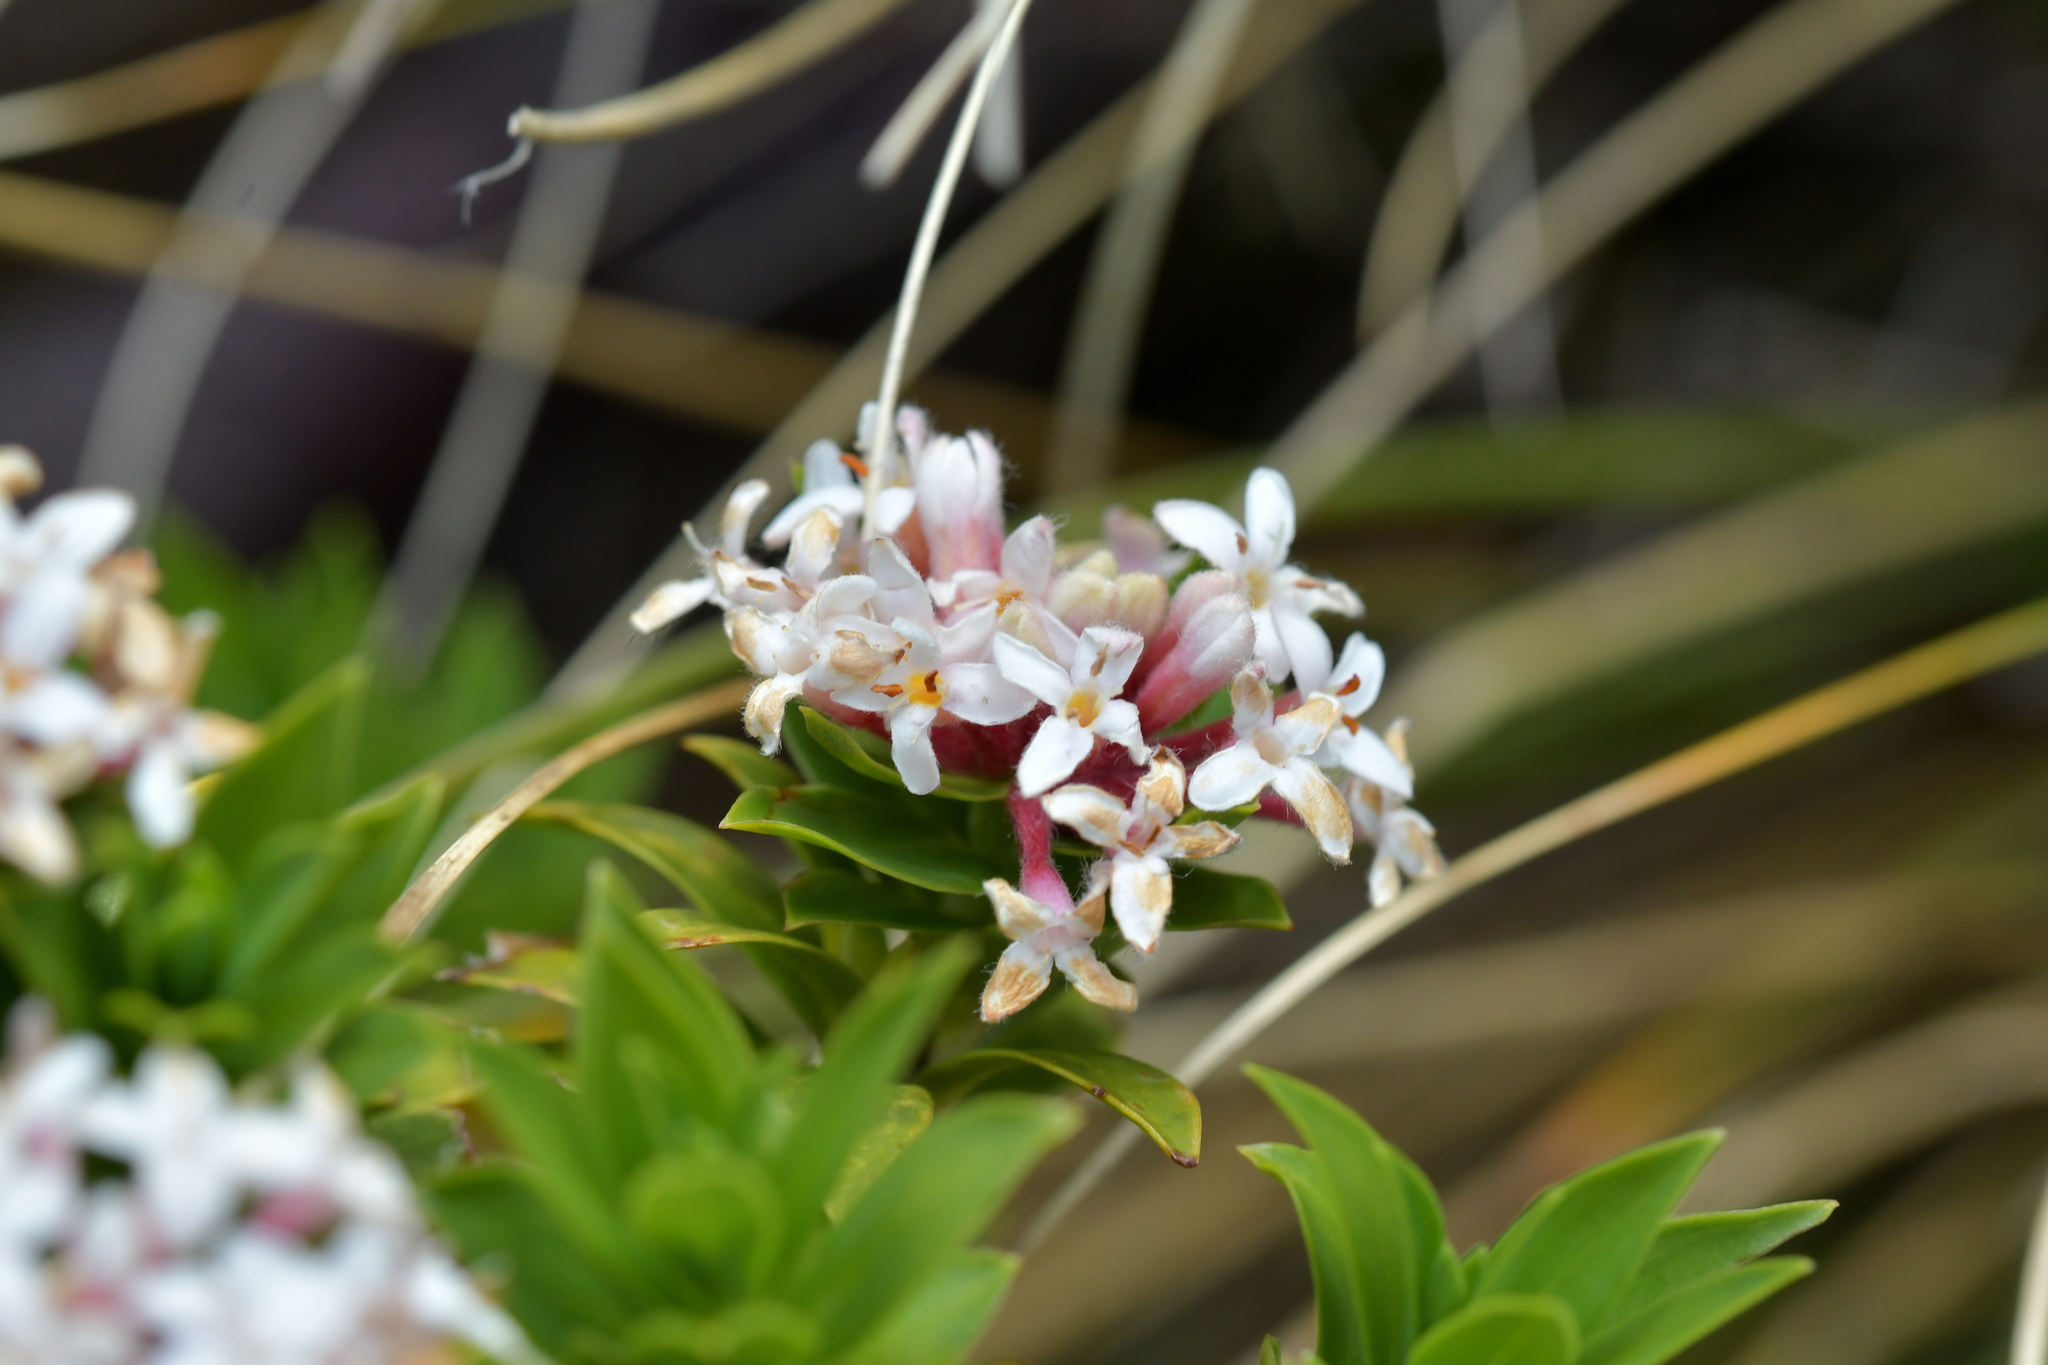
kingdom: Plantae
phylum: Tracheophyta
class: Magnoliopsida
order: Malvales
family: Thymelaeaceae
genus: Pimelea
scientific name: Pimelea gnidia
